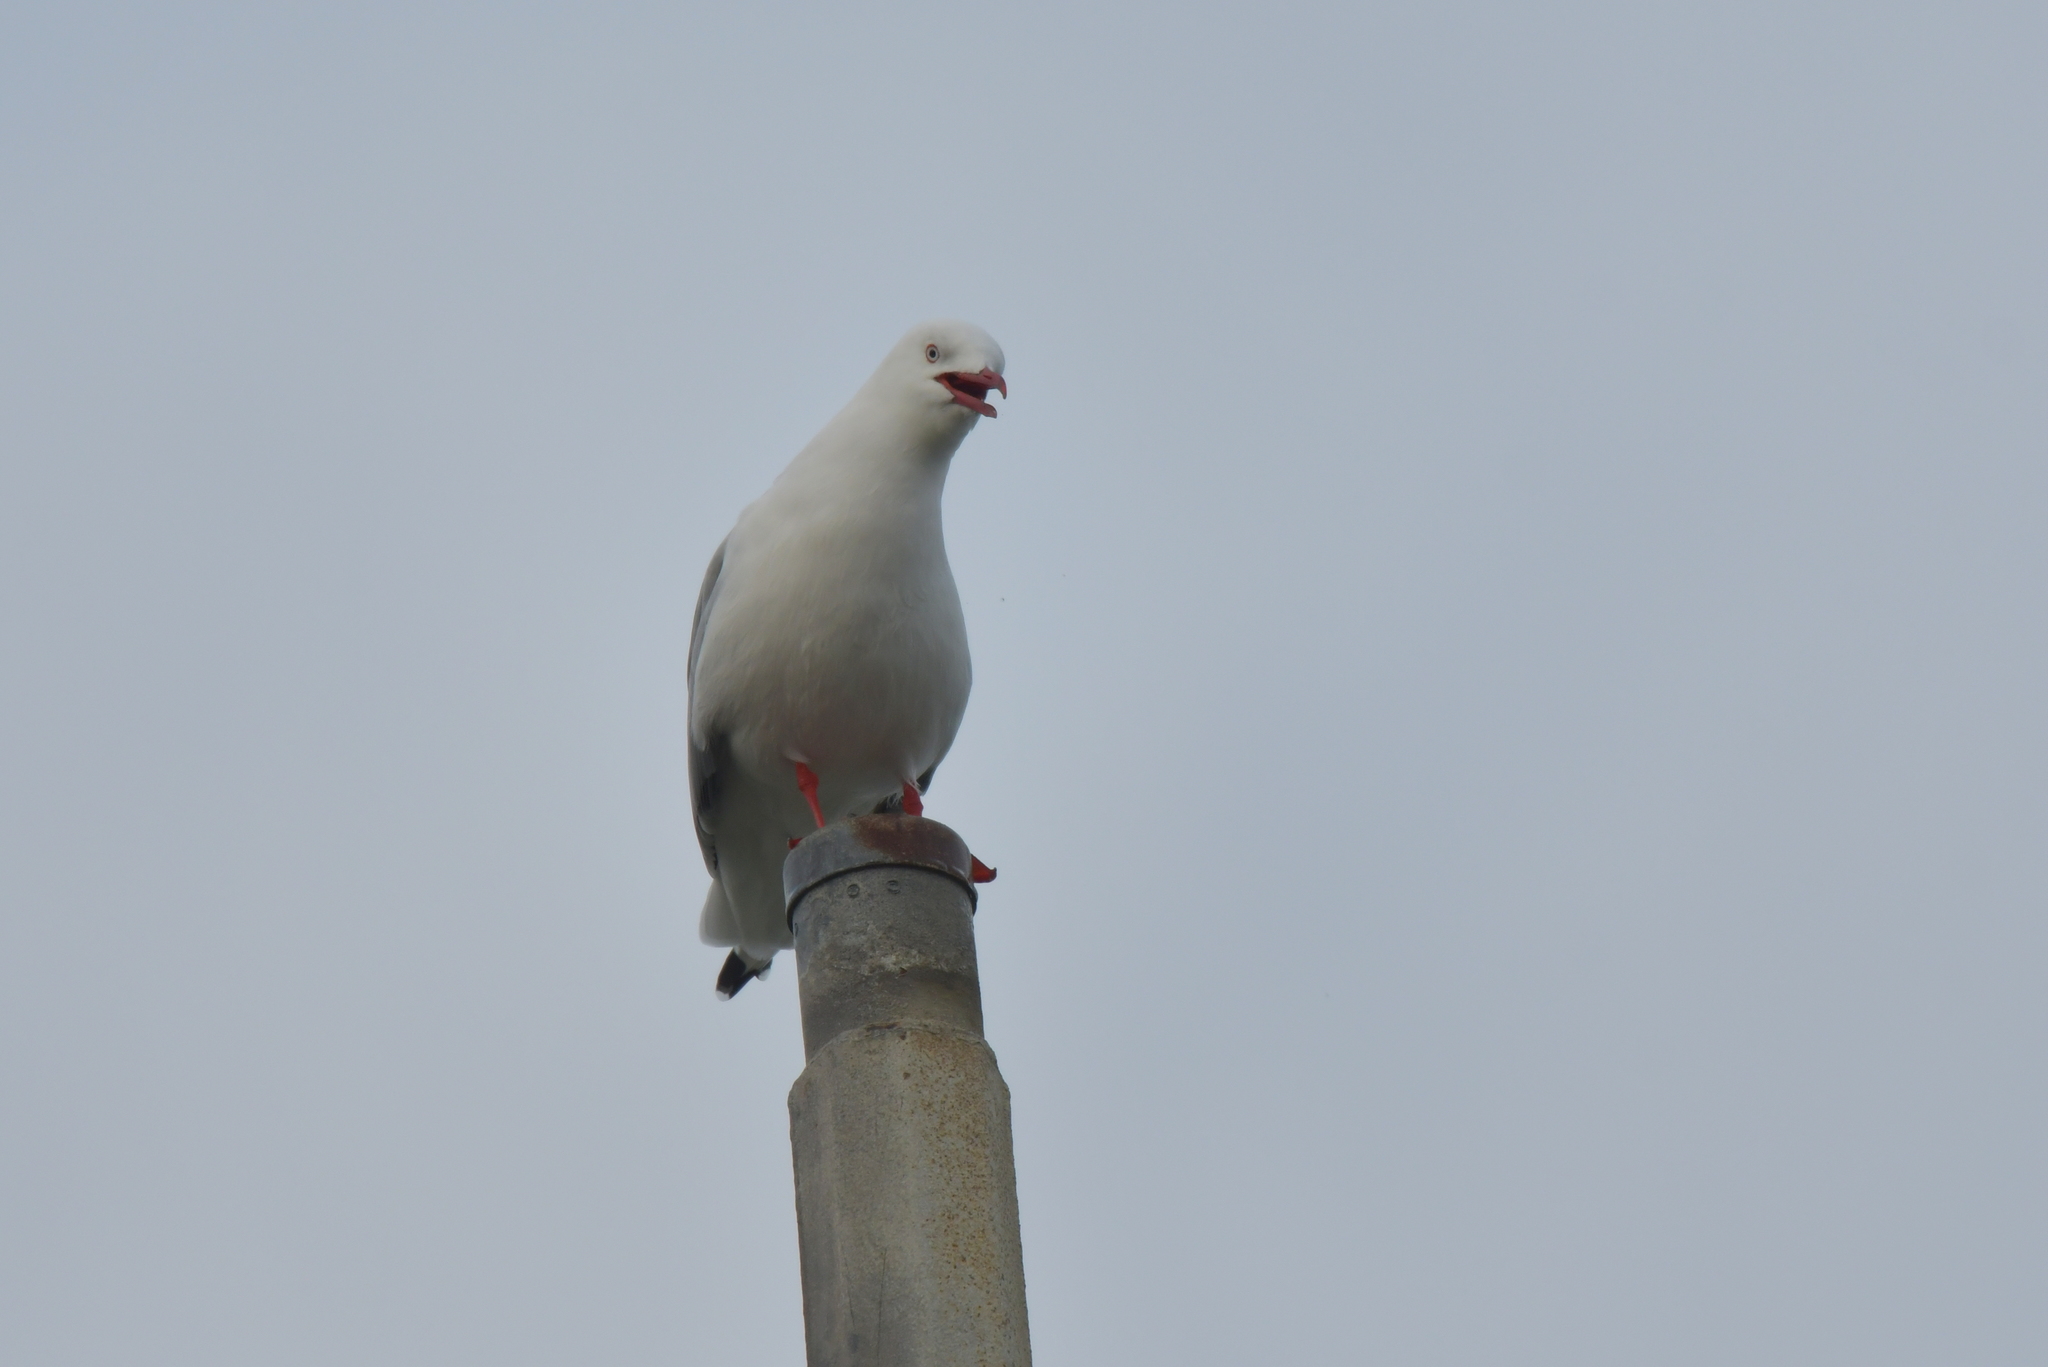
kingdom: Animalia
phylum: Chordata
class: Aves
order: Charadriiformes
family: Laridae
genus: Chroicocephalus
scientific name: Chroicocephalus novaehollandiae
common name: Silver gull
